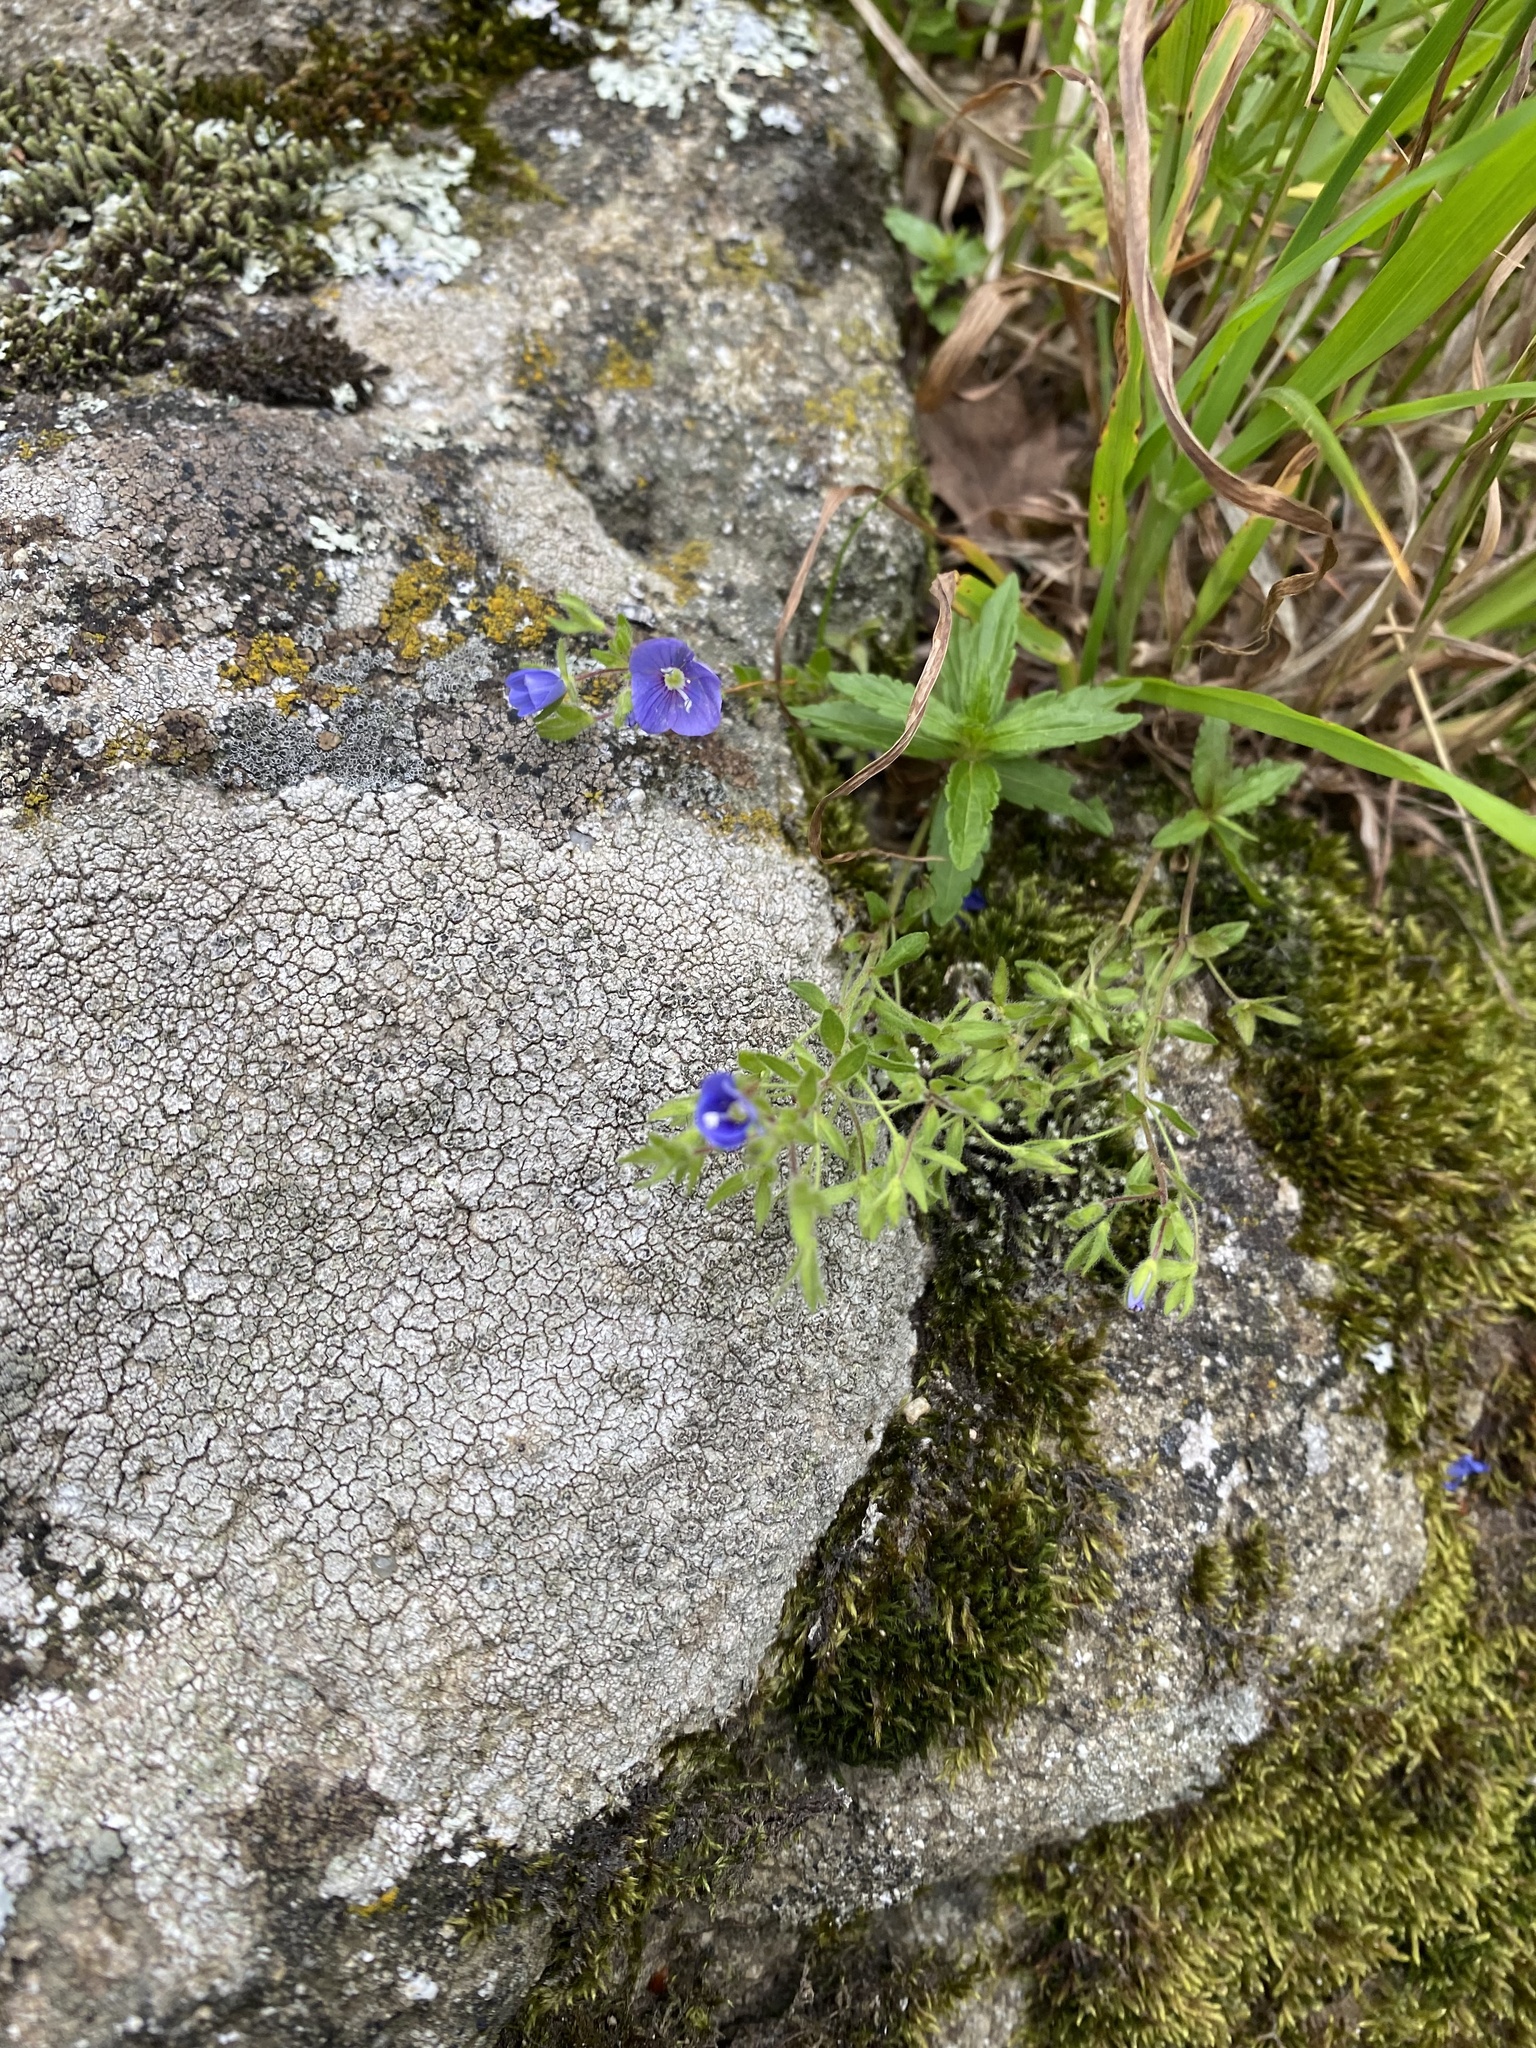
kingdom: Plantae
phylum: Tracheophyta
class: Magnoliopsida
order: Lamiales
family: Plantaginaceae
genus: Veronica
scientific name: Veronica
